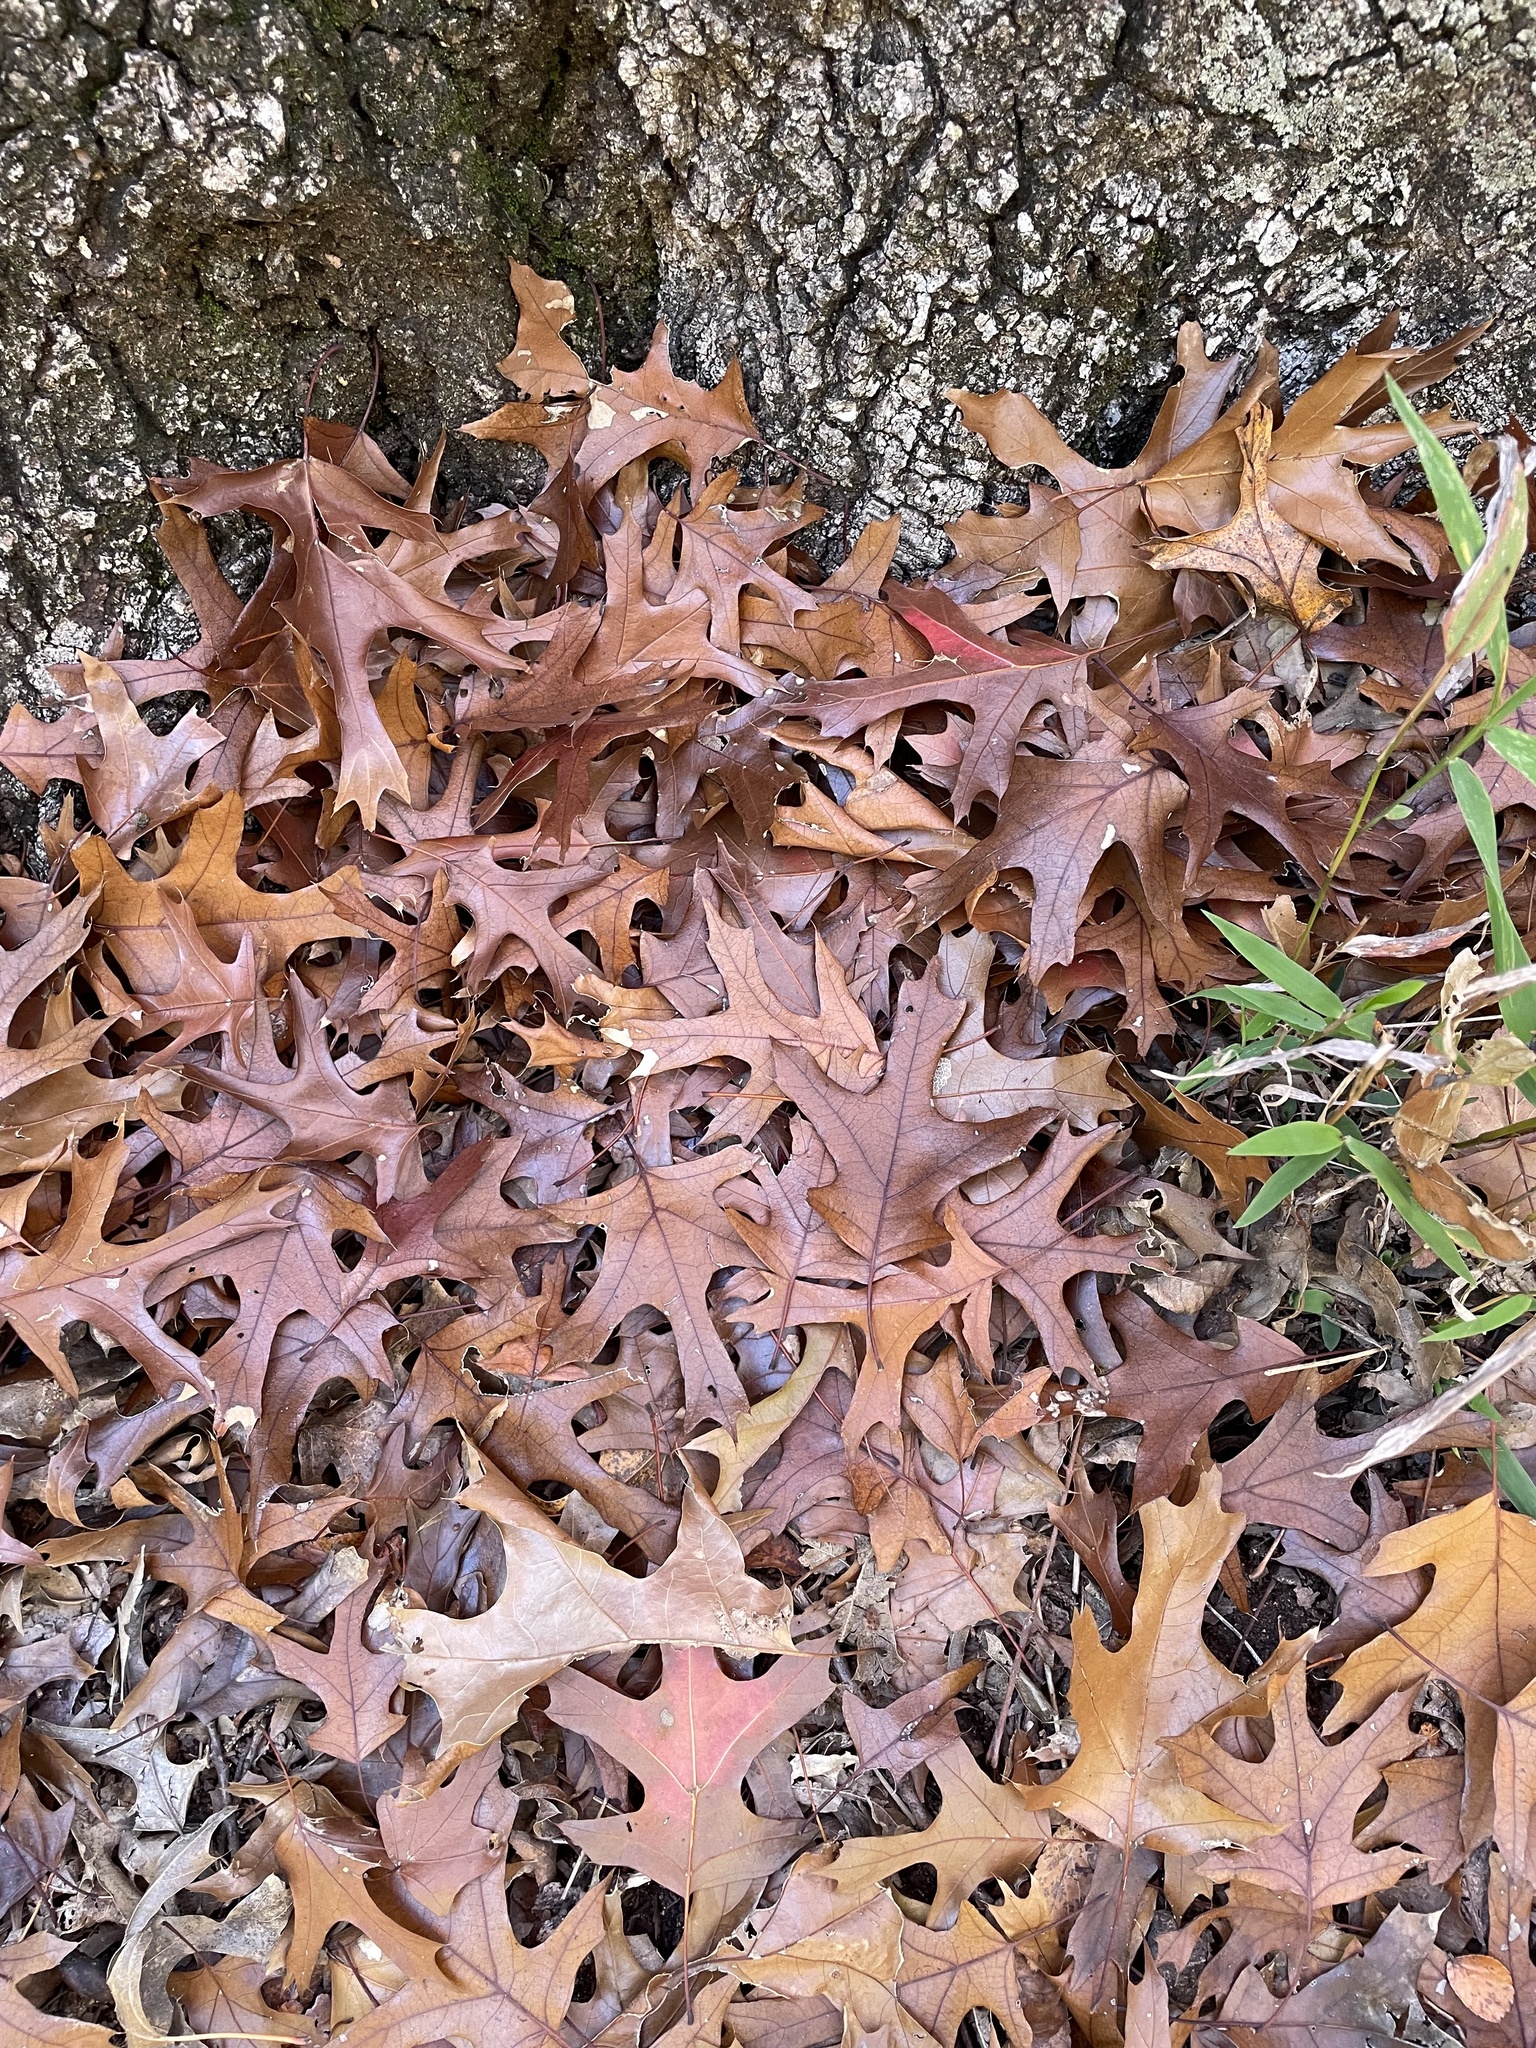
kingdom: Plantae
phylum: Tracheophyta
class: Magnoliopsida
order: Fagales
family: Fagaceae
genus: Quercus
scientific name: Quercus buckleyi
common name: Buckley oak
